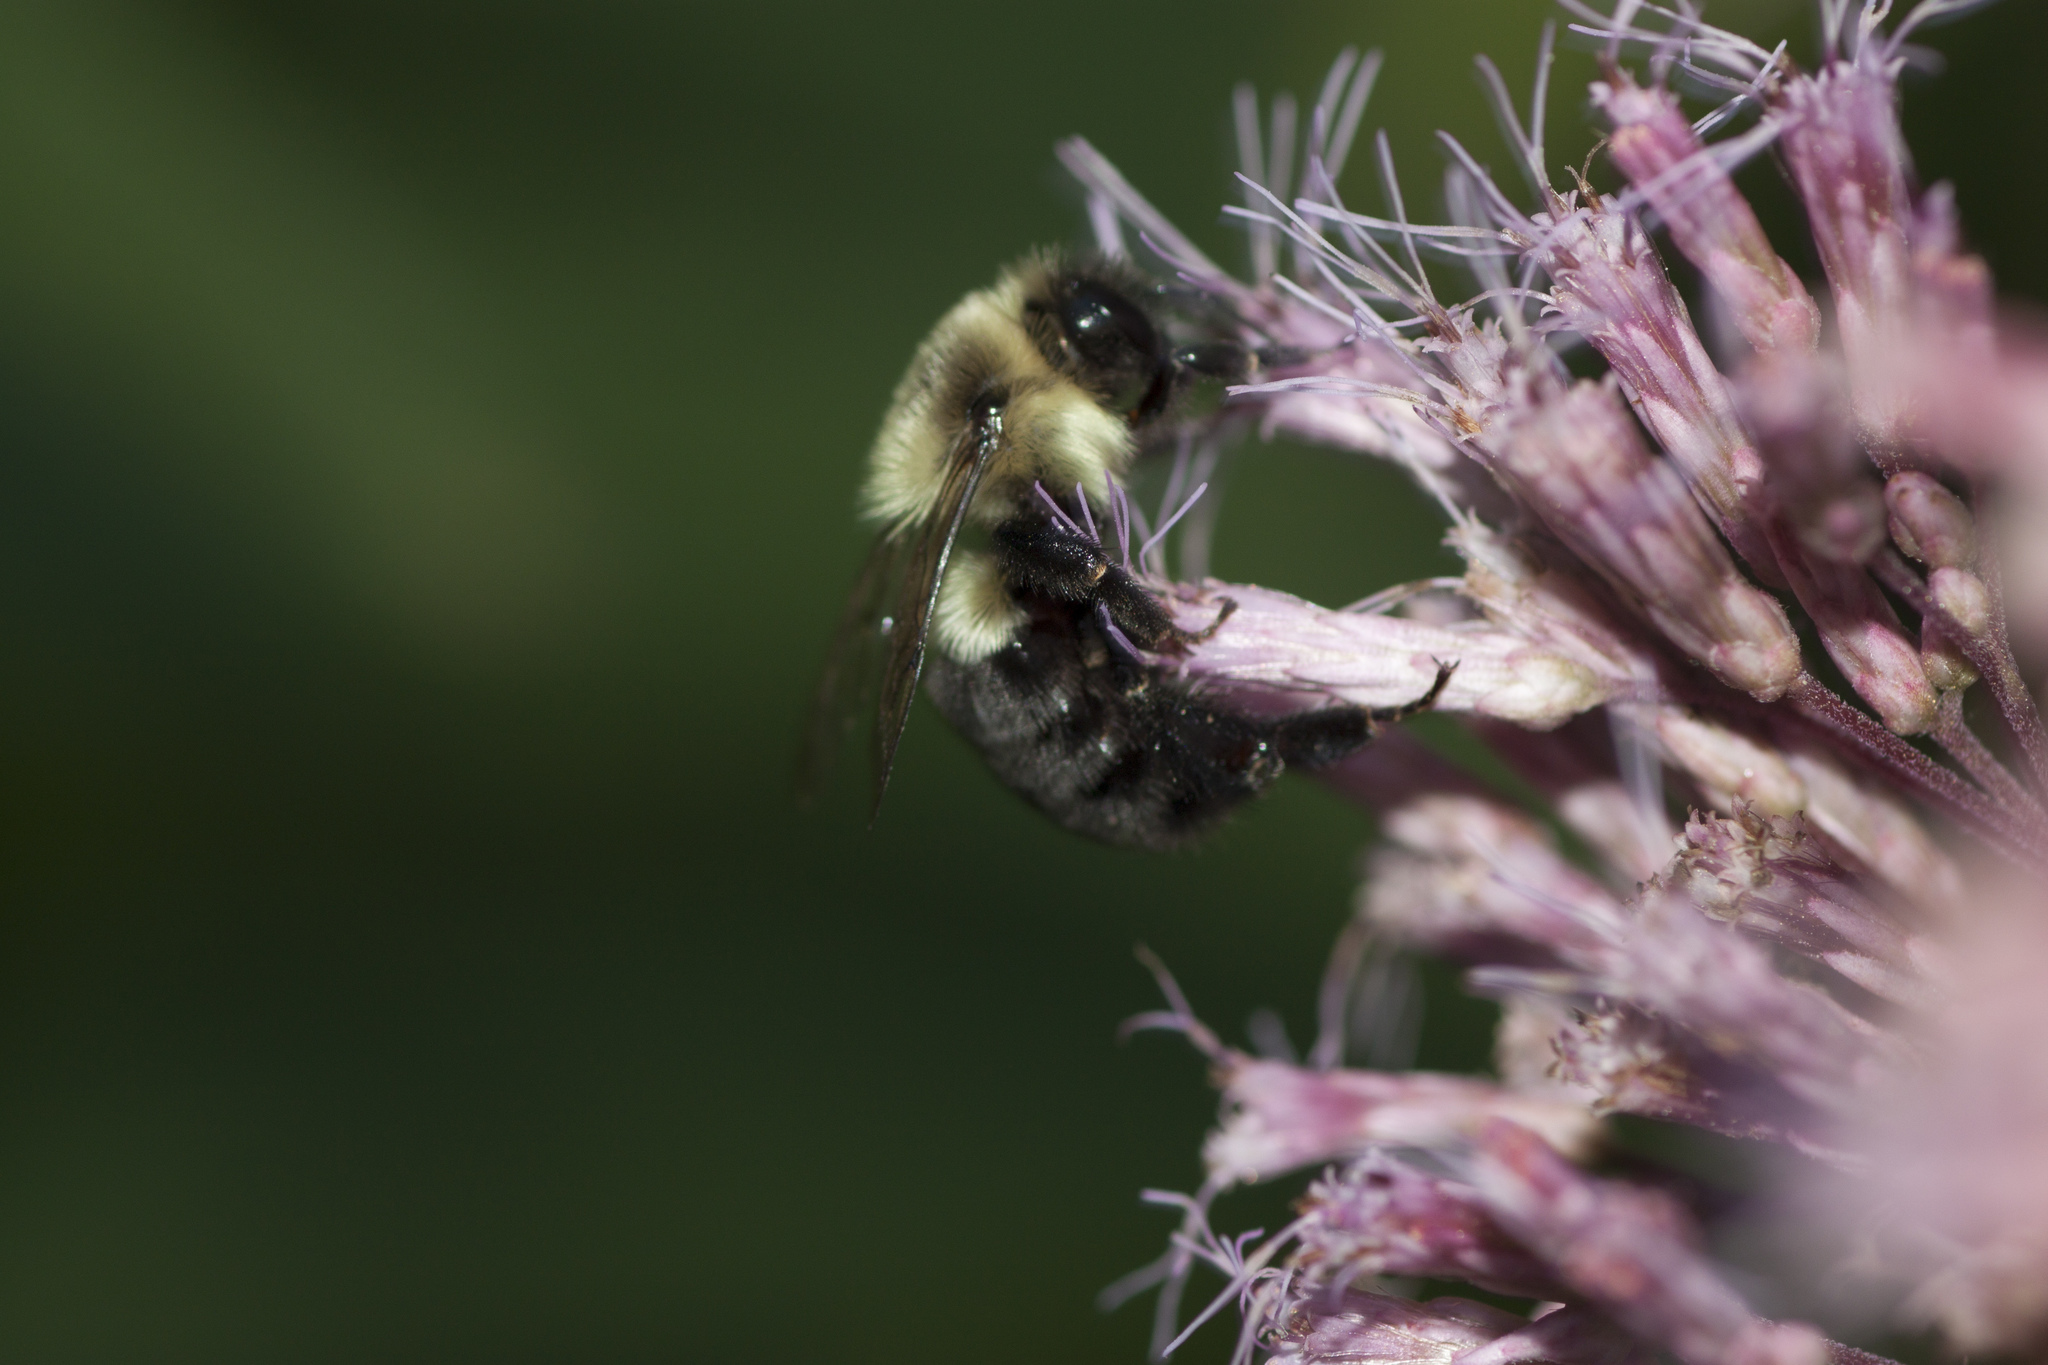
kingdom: Animalia
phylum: Arthropoda
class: Insecta
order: Hymenoptera
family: Apidae
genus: Bombus
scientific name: Bombus impatiens
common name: Common eastern bumble bee
